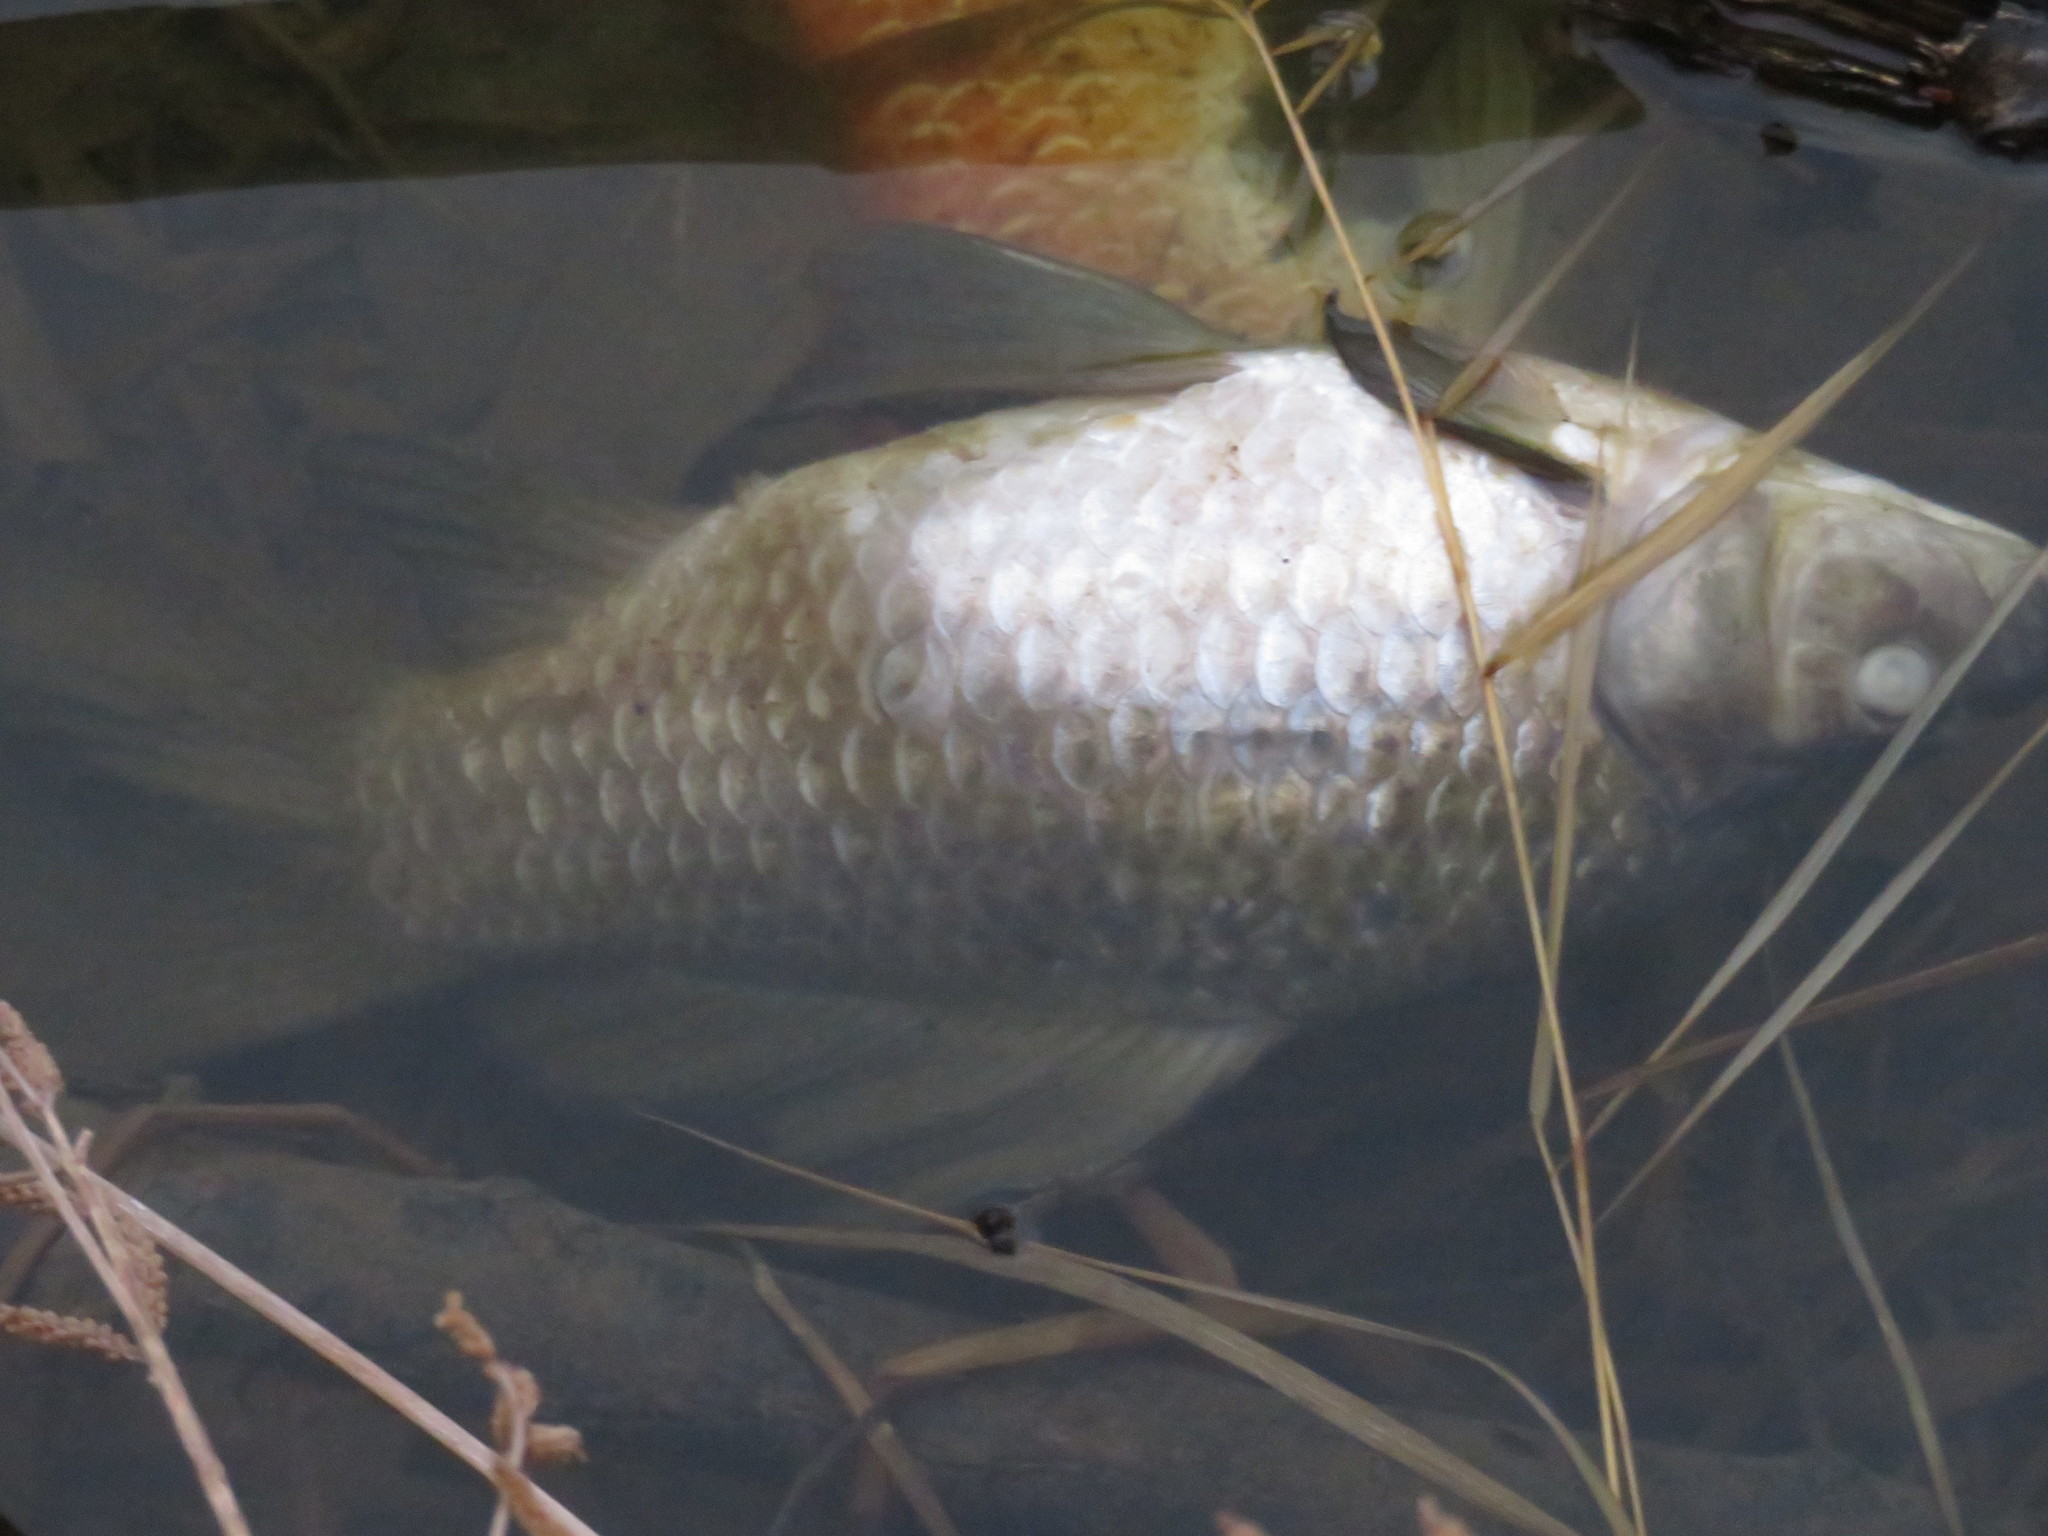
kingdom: Animalia
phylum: Chordata
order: Cypriniformes
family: Cyprinidae
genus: Carassius
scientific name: Carassius auratus
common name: Goldfish
